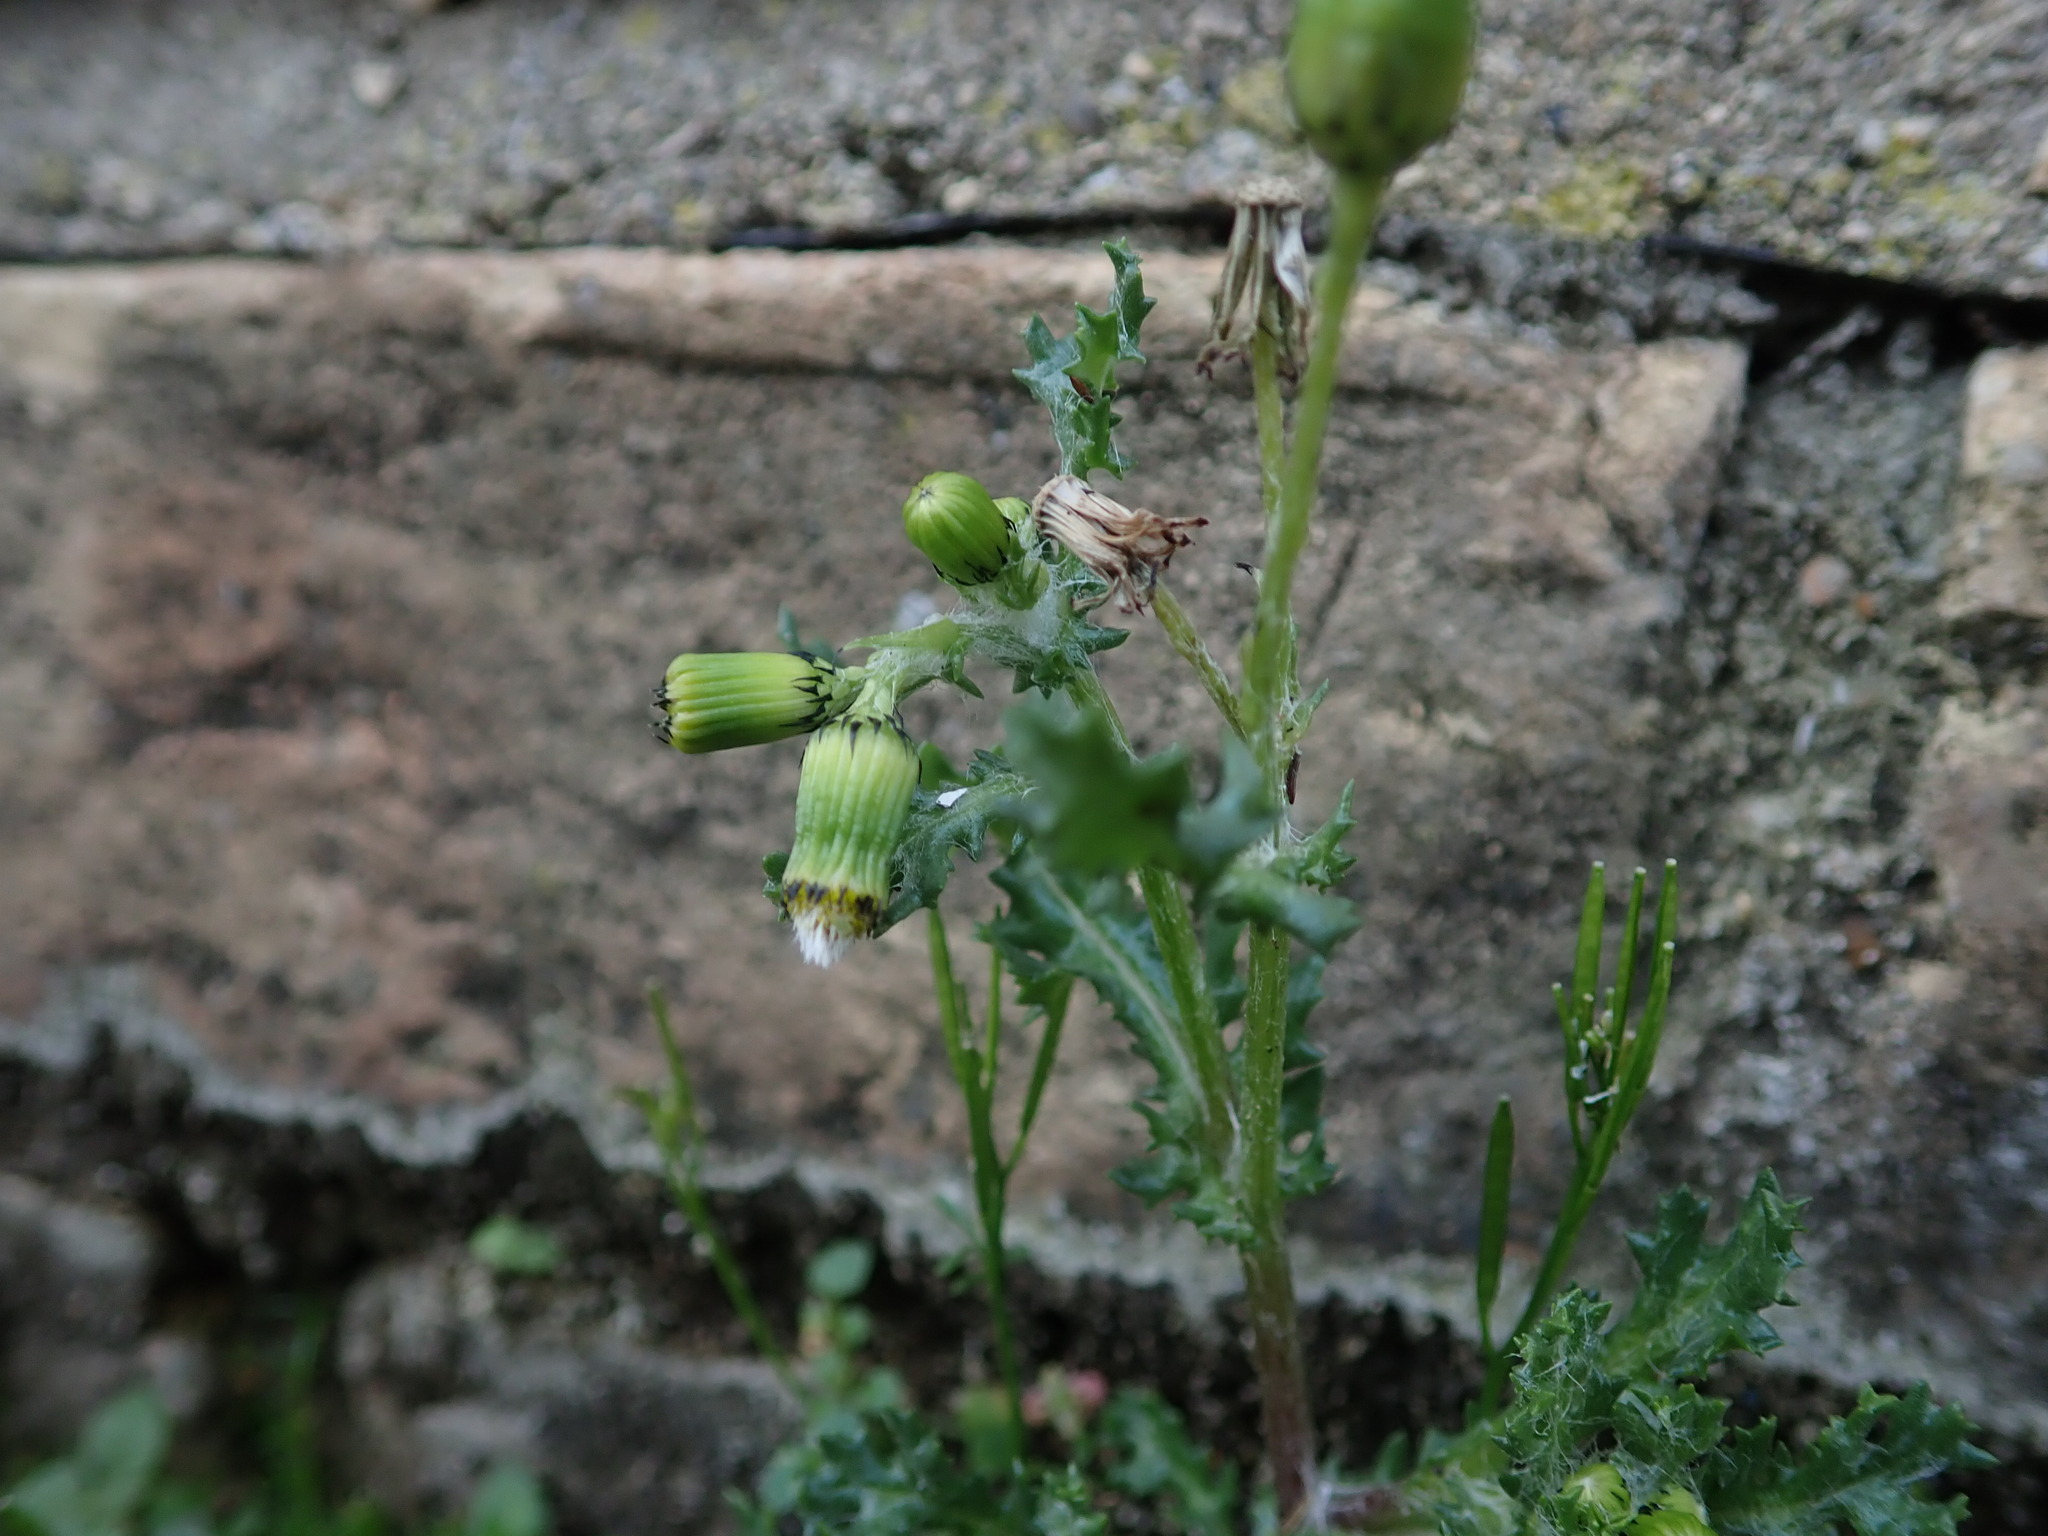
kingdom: Plantae
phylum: Tracheophyta
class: Magnoliopsida
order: Asterales
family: Asteraceae
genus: Senecio
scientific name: Senecio vulgaris
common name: Old-man-in-the-spring
